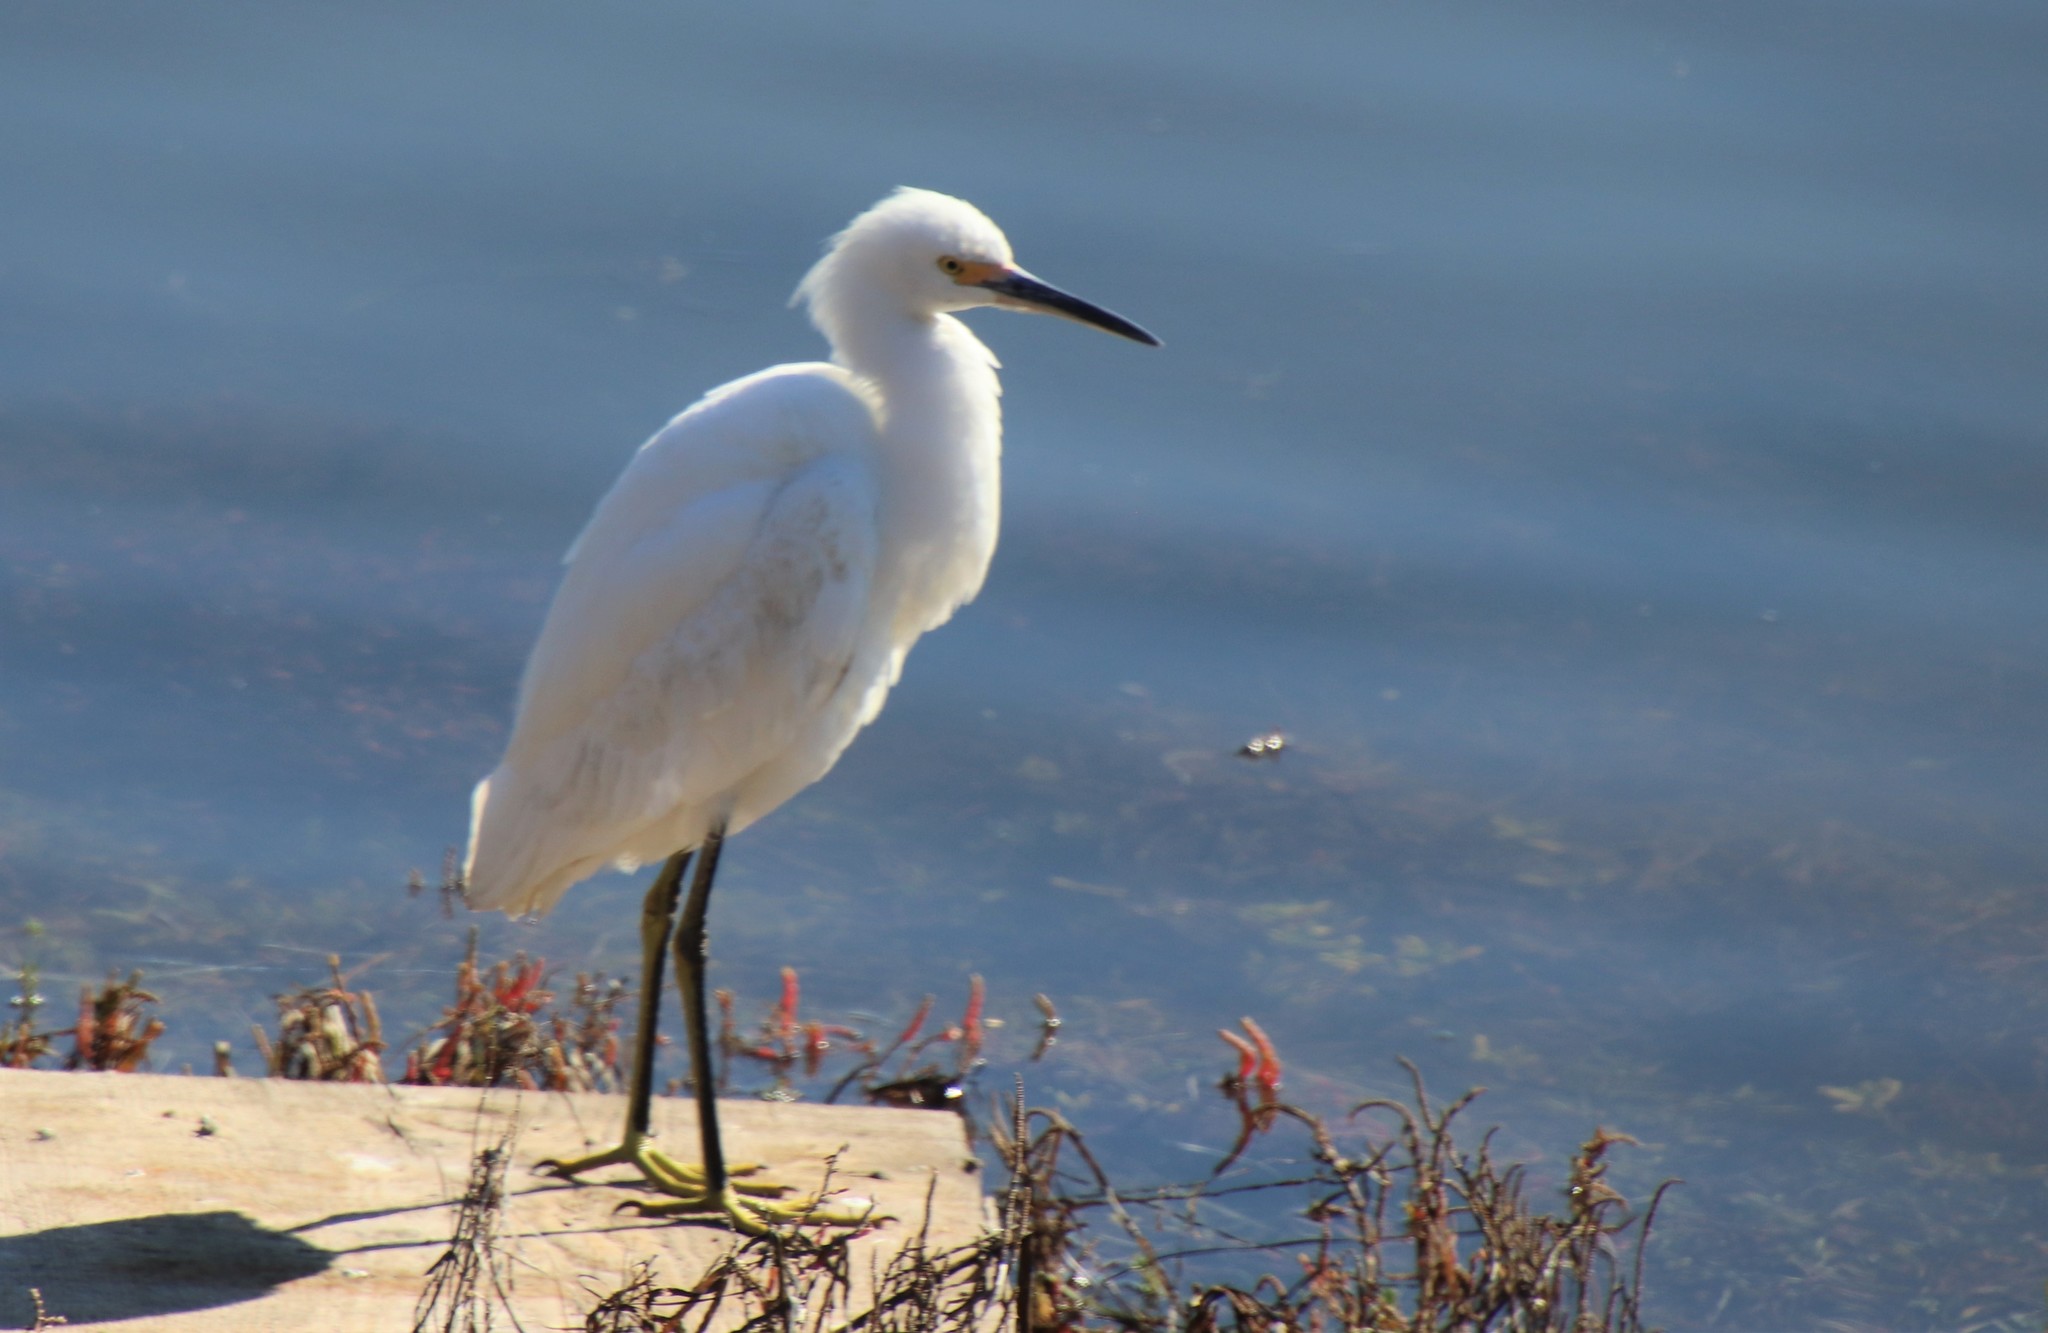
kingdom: Animalia
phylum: Chordata
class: Aves
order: Pelecaniformes
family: Ardeidae
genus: Egretta
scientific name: Egretta thula
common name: Snowy egret
